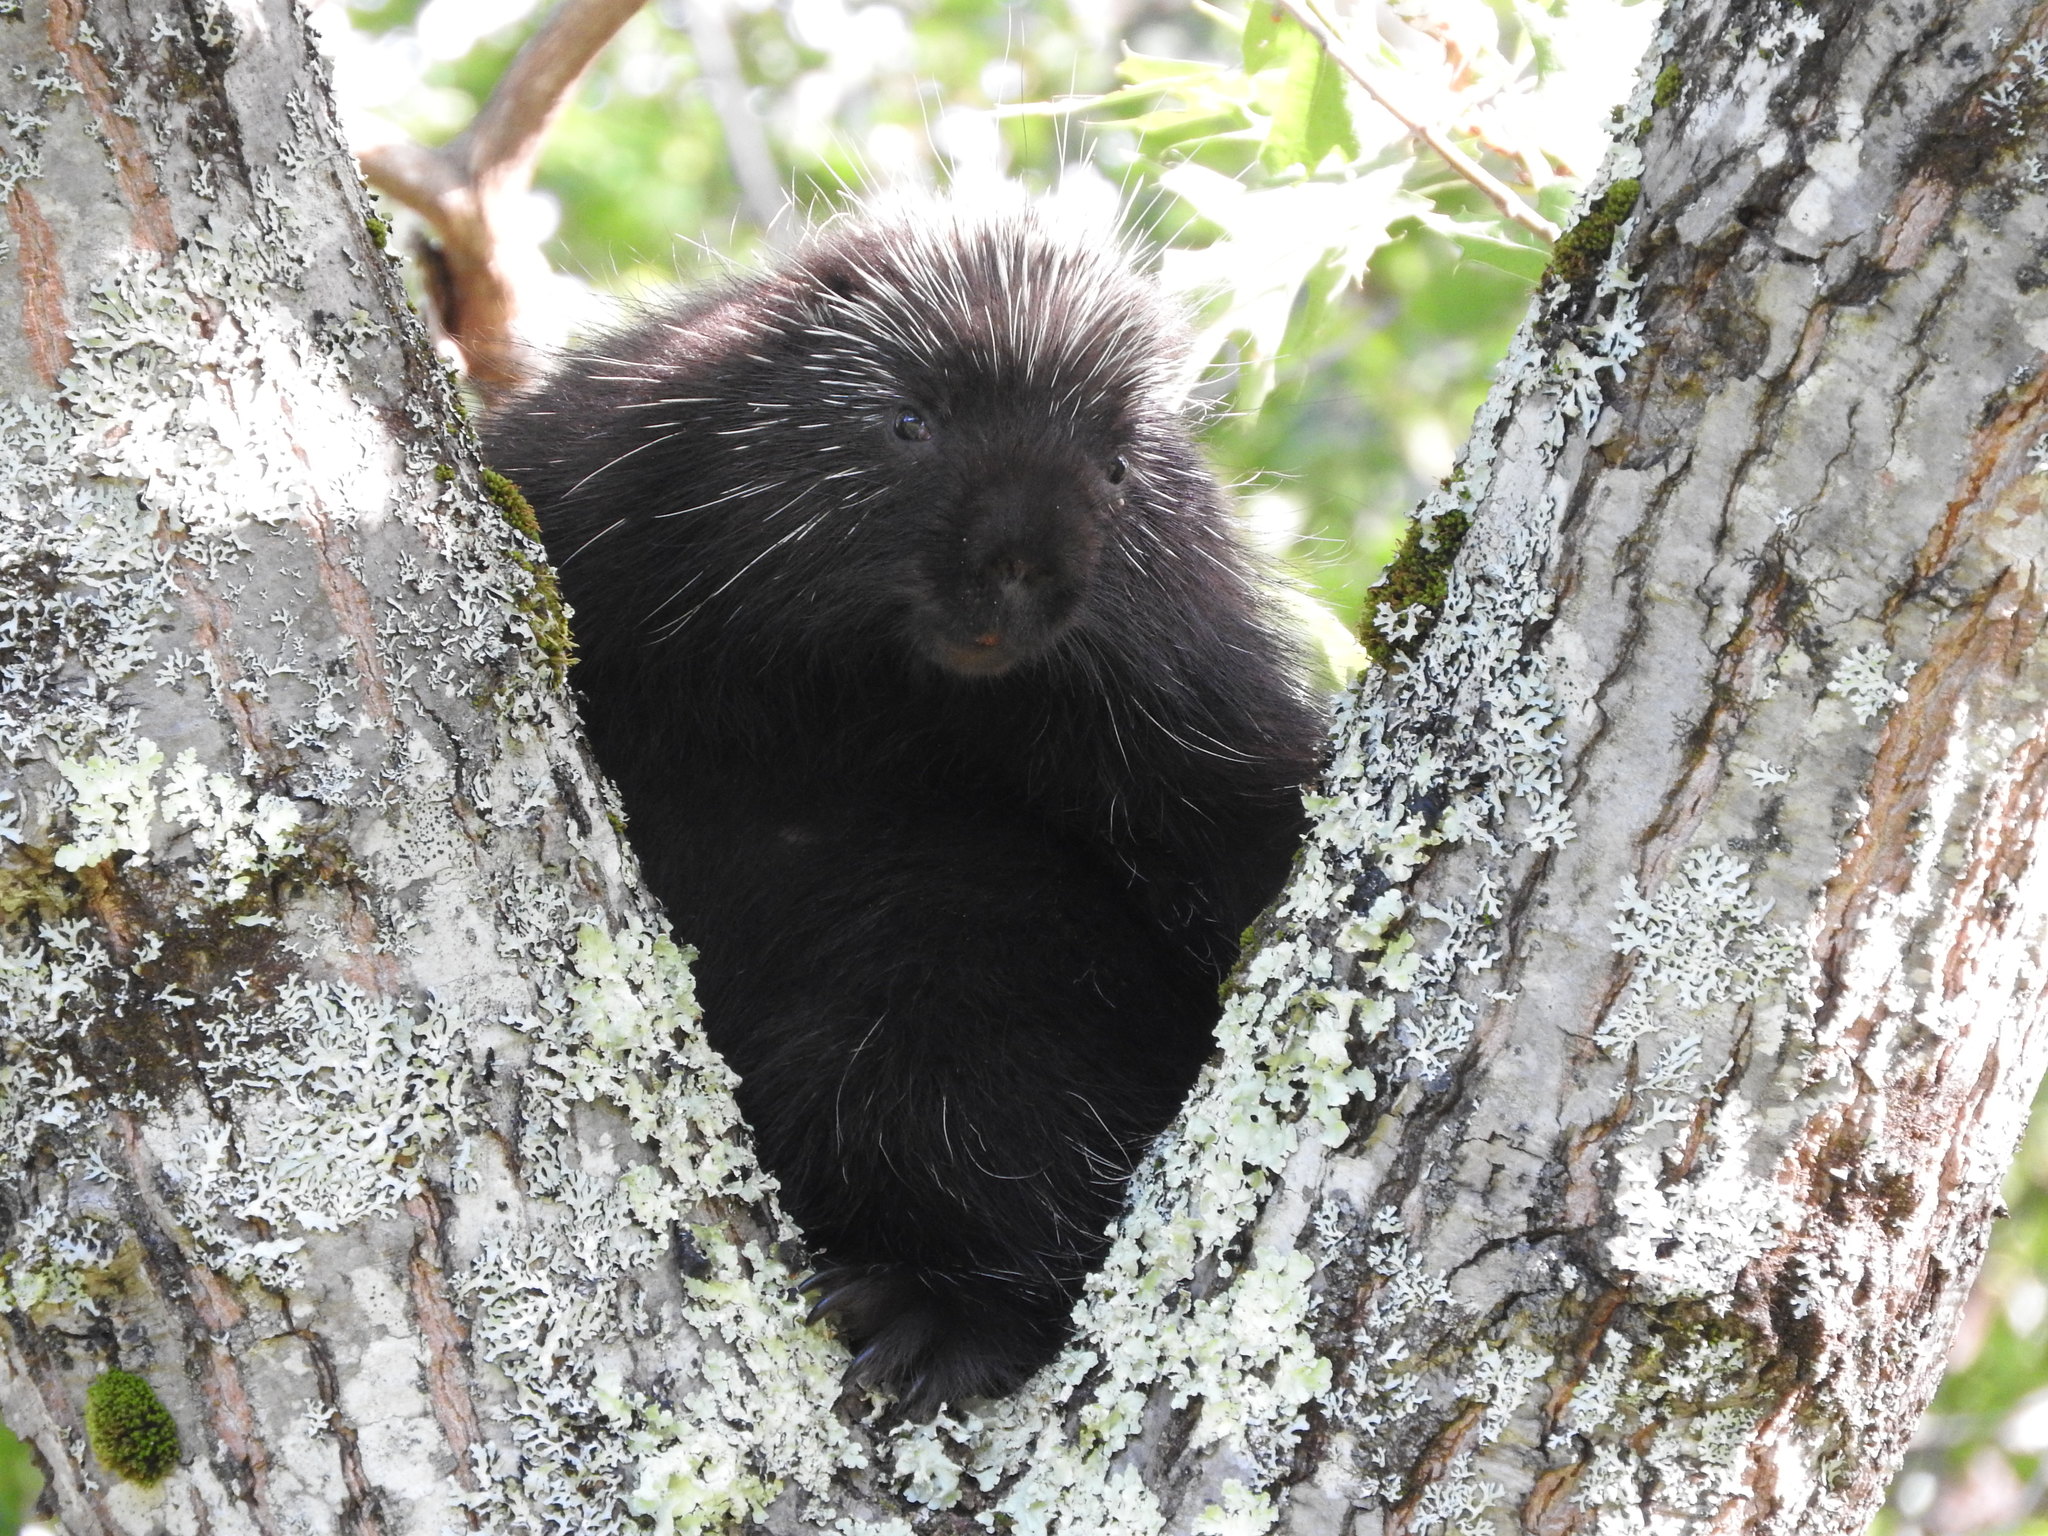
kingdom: Animalia
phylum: Chordata
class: Mammalia
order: Rodentia
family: Erethizontidae
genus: Erethizon
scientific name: Erethizon dorsatus
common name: North american porcupine
